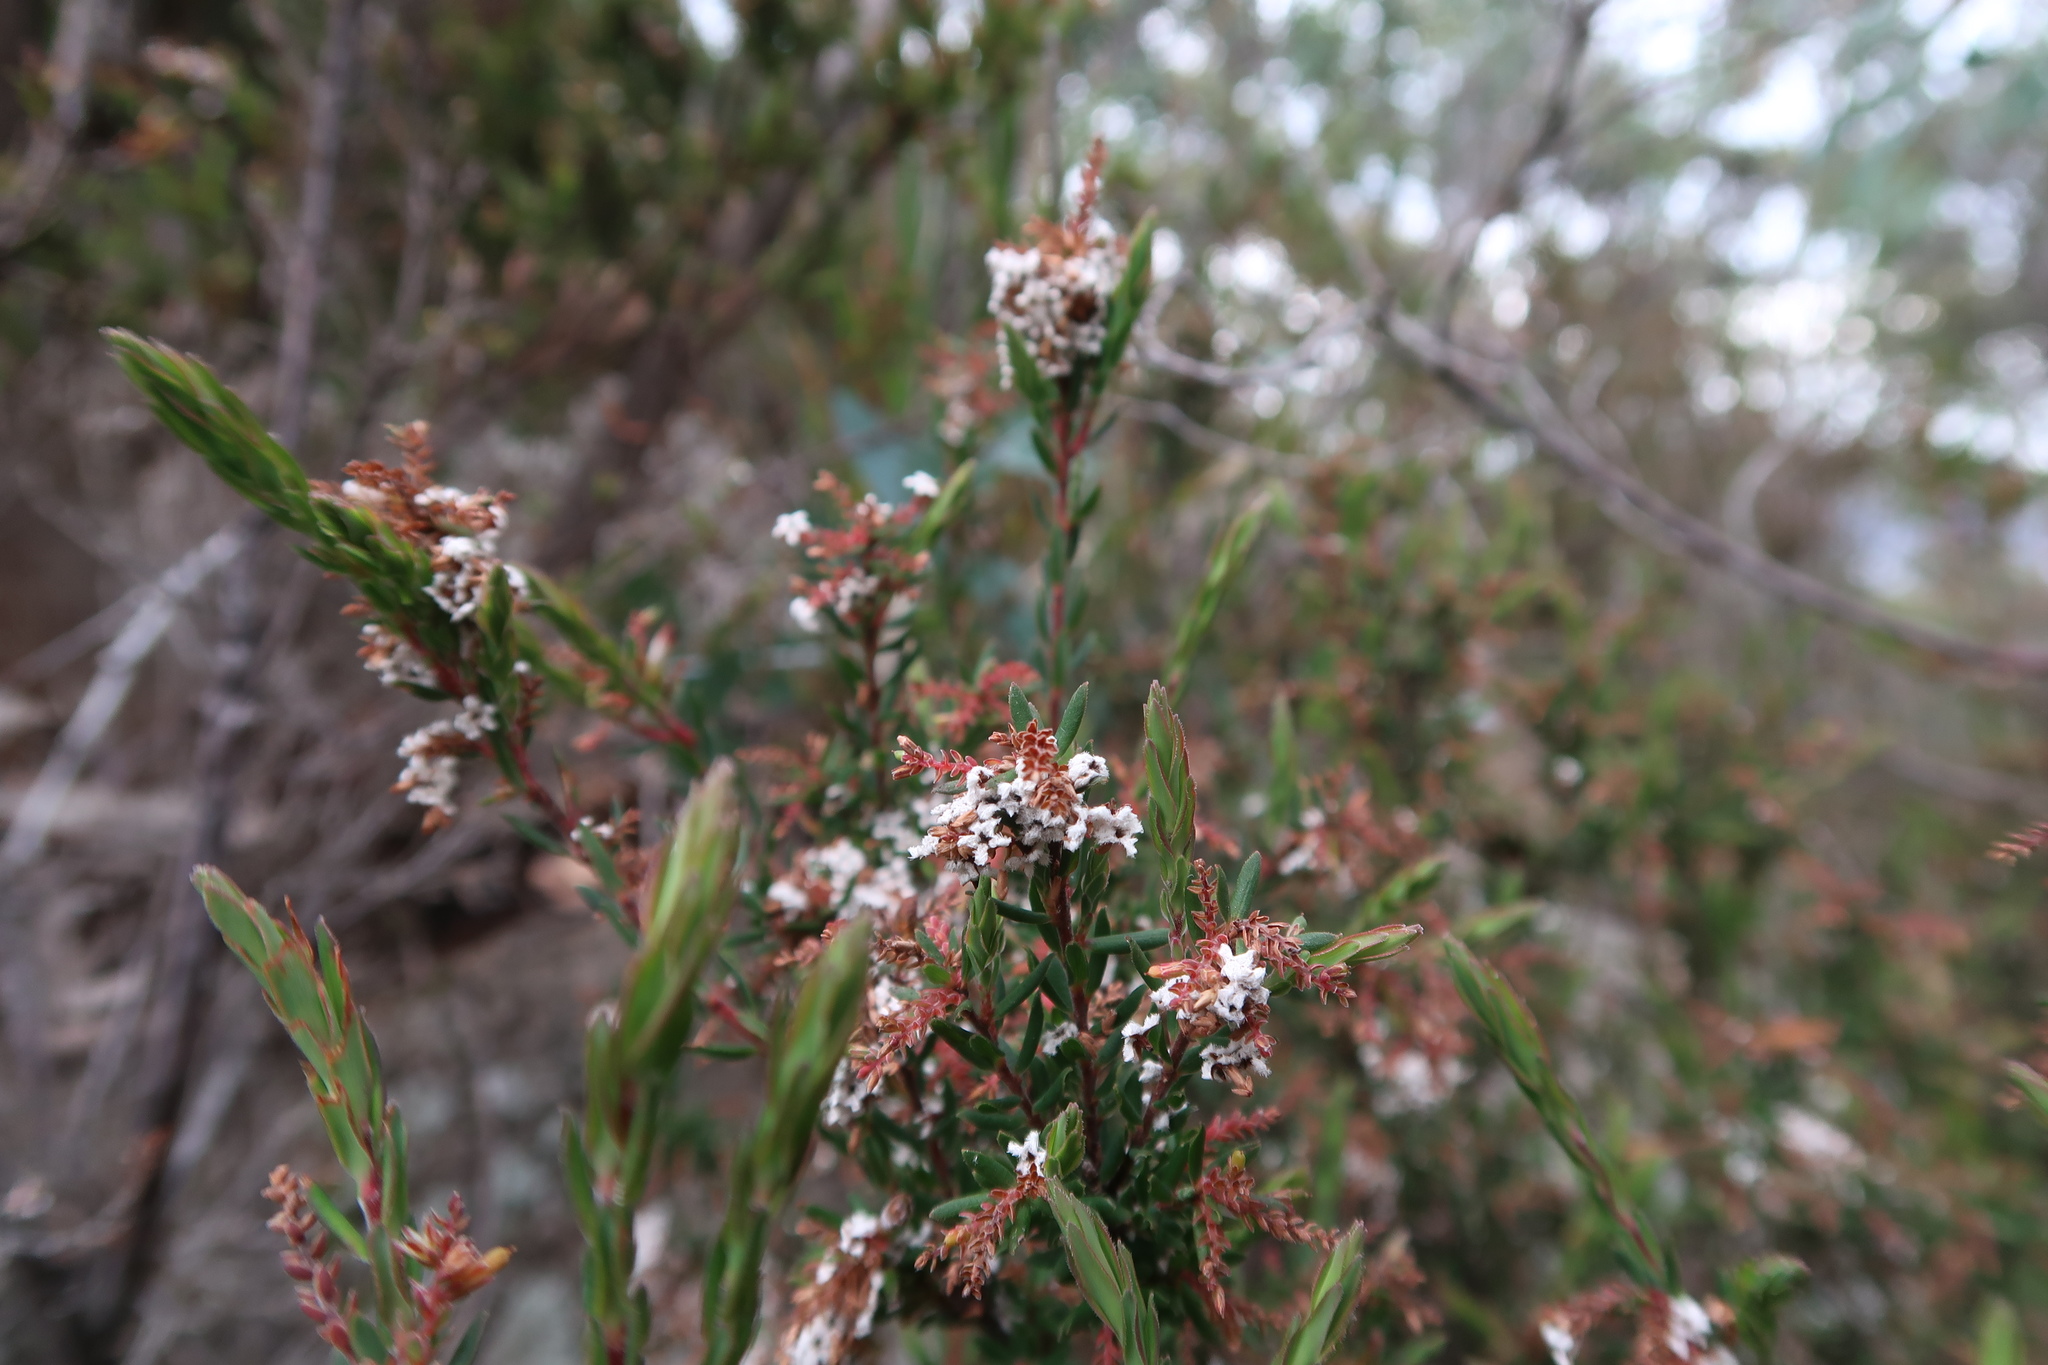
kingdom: Plantae
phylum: Tracheophyta
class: Magnoliopsida
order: Ericales
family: Ericaceae
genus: Leucopogon
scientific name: Leucopogon collinus
